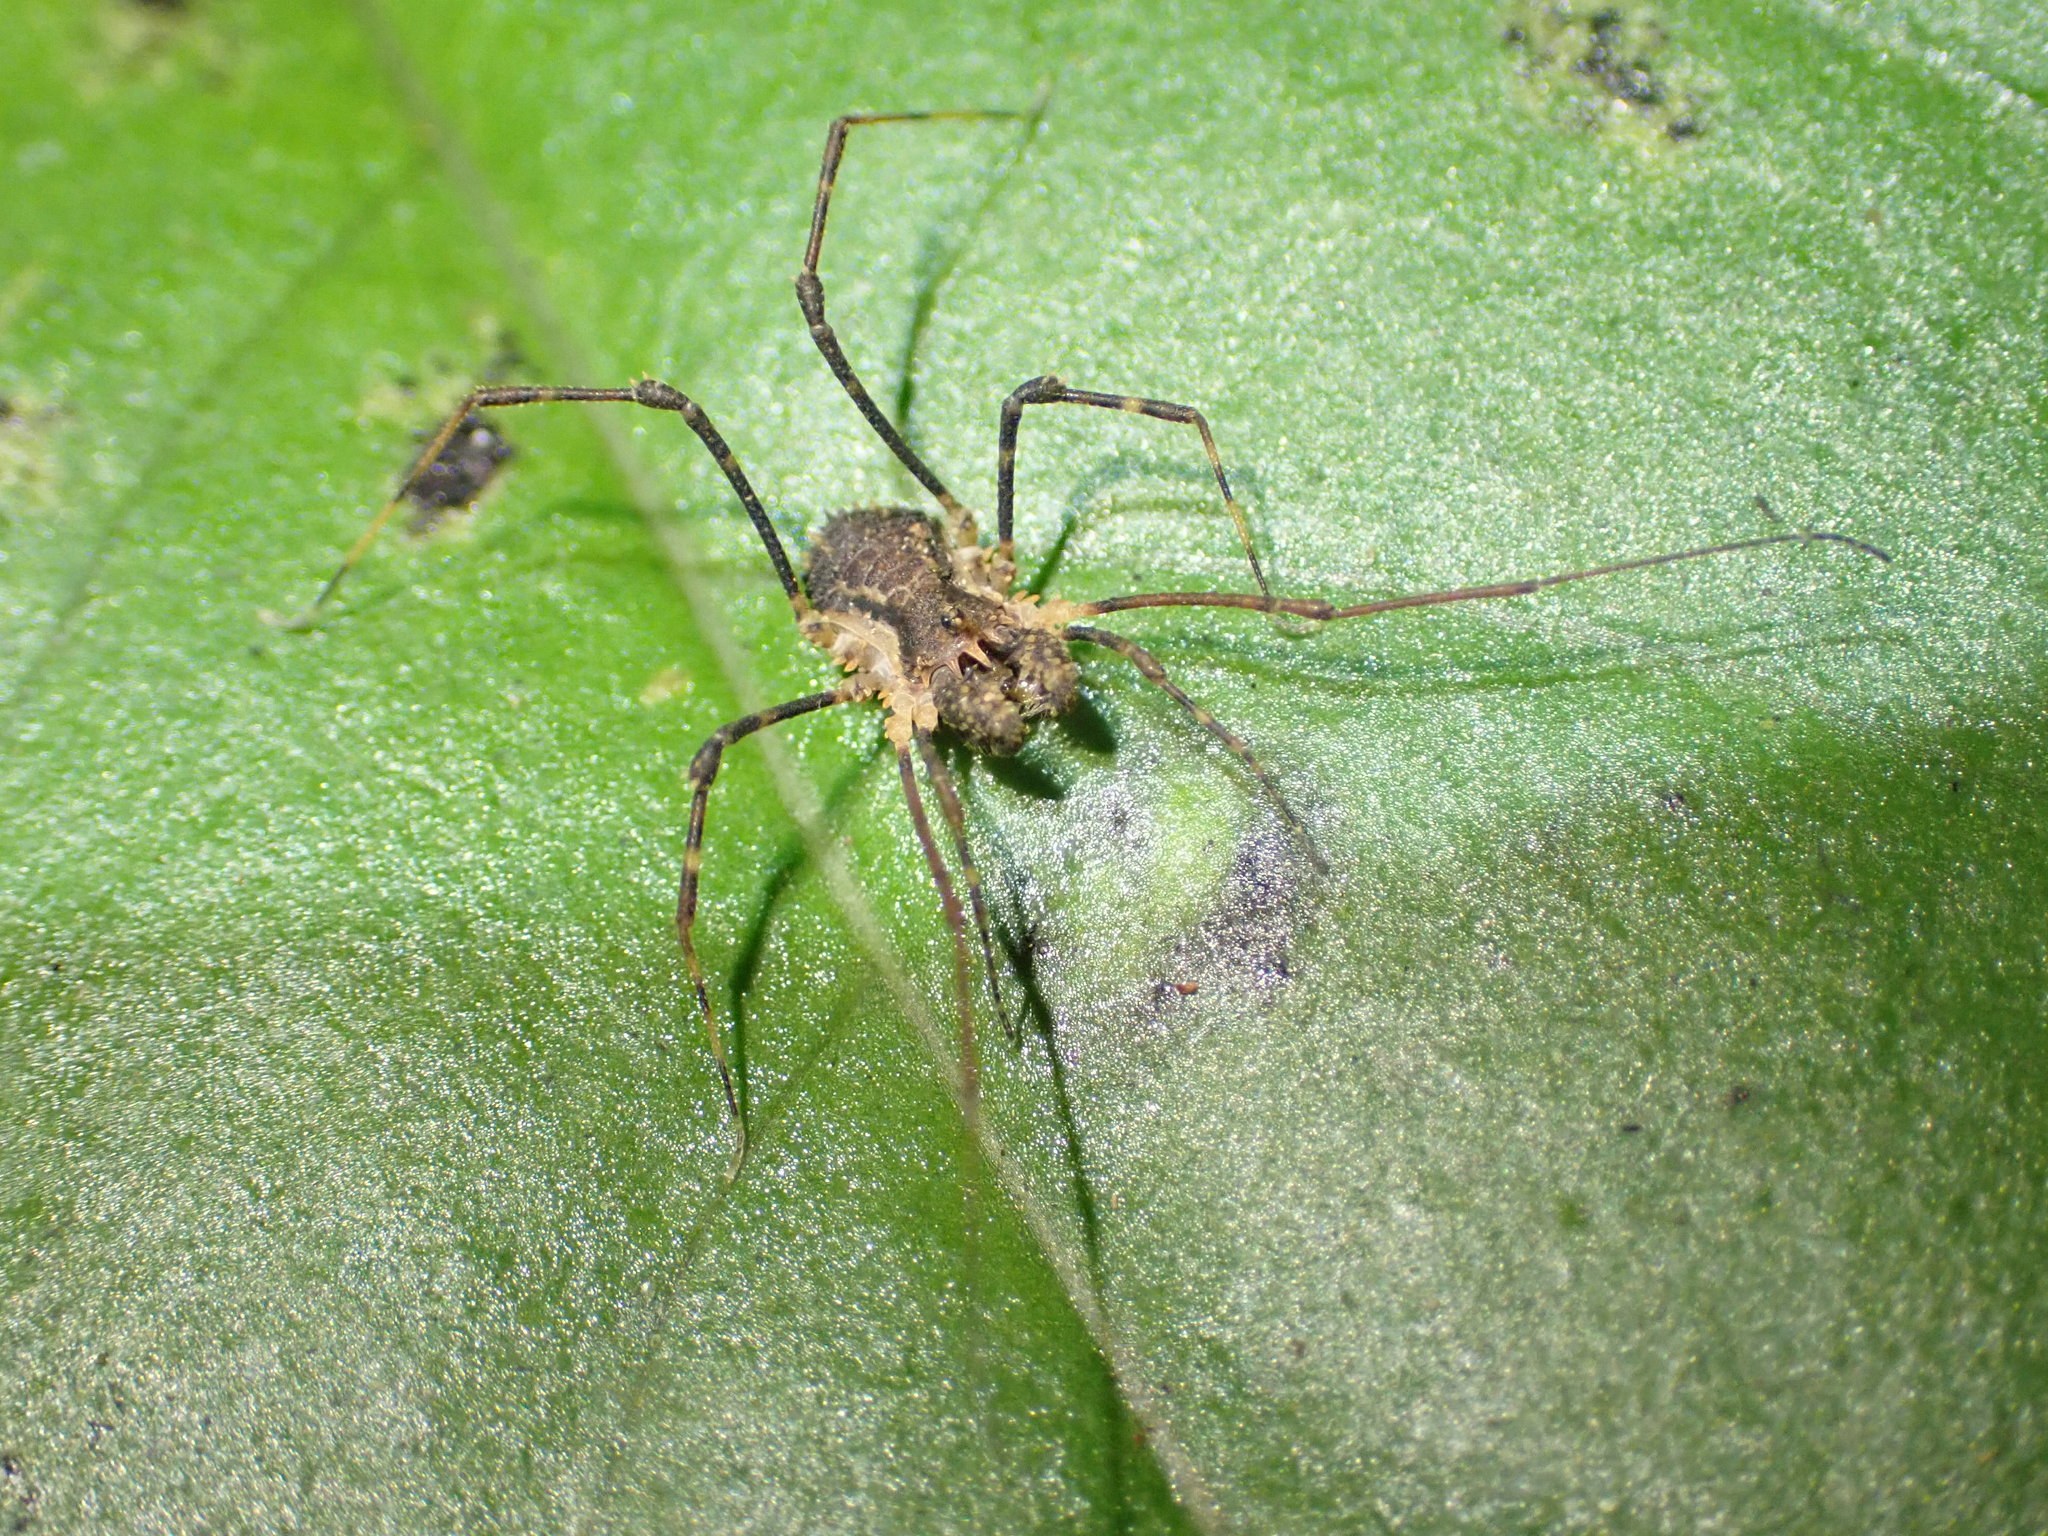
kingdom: Animalia
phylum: Arthropoda
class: Arachnida
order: Opiliones
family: Triaenonychidae
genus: Algidia
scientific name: Algidia chiltoni
